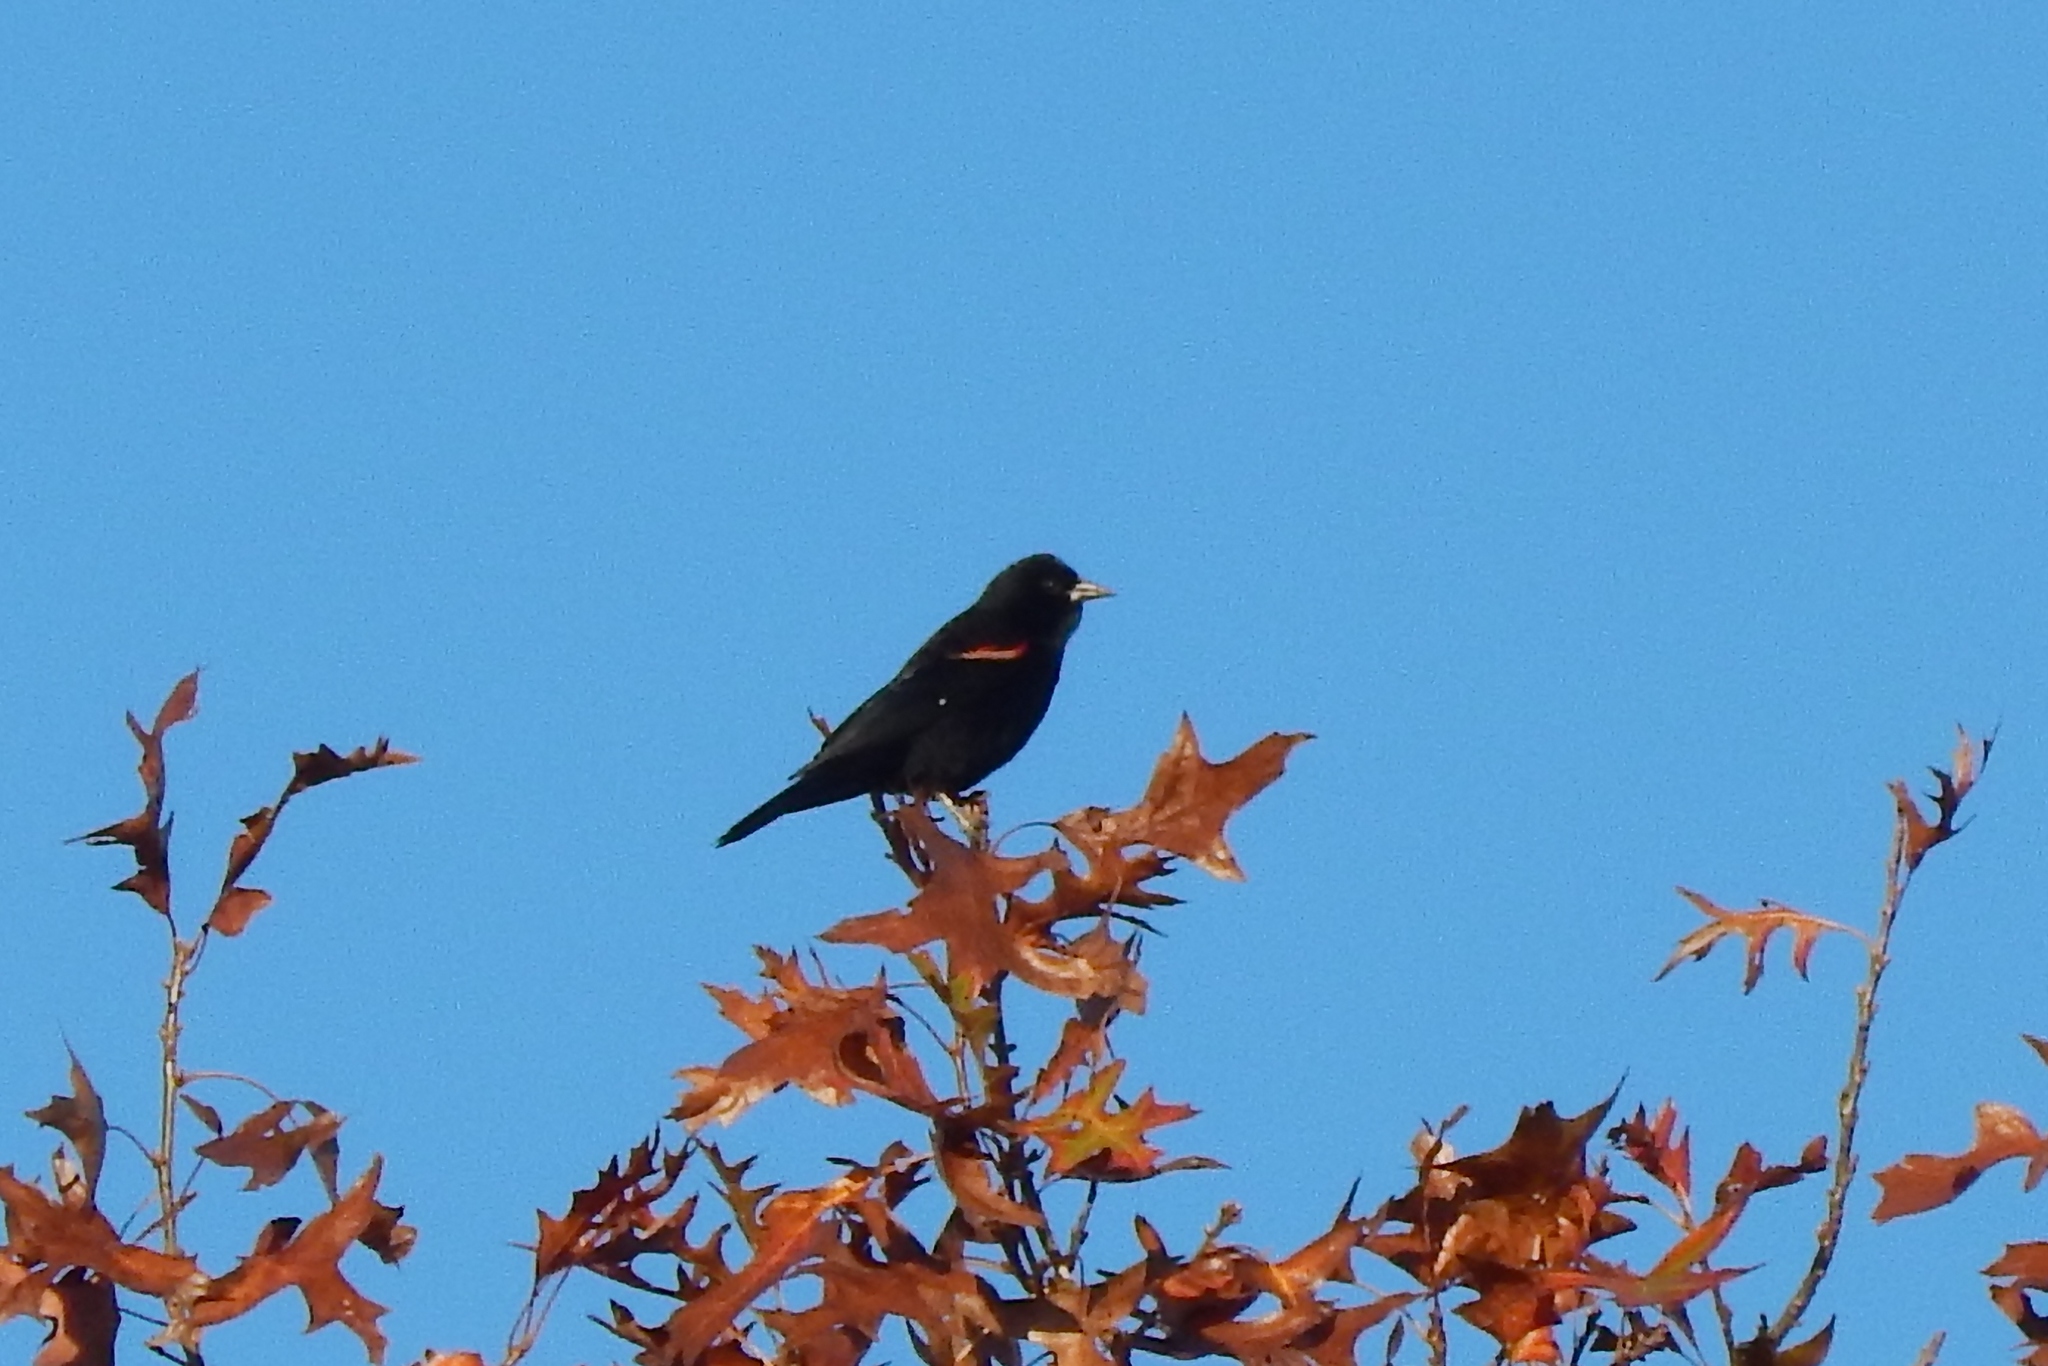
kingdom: Animalia
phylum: Chordata
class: Aves
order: Passeriformes
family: Icteridae
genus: Agelaius
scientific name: Agelaius phoeniceus
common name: Red-winged blackbird
